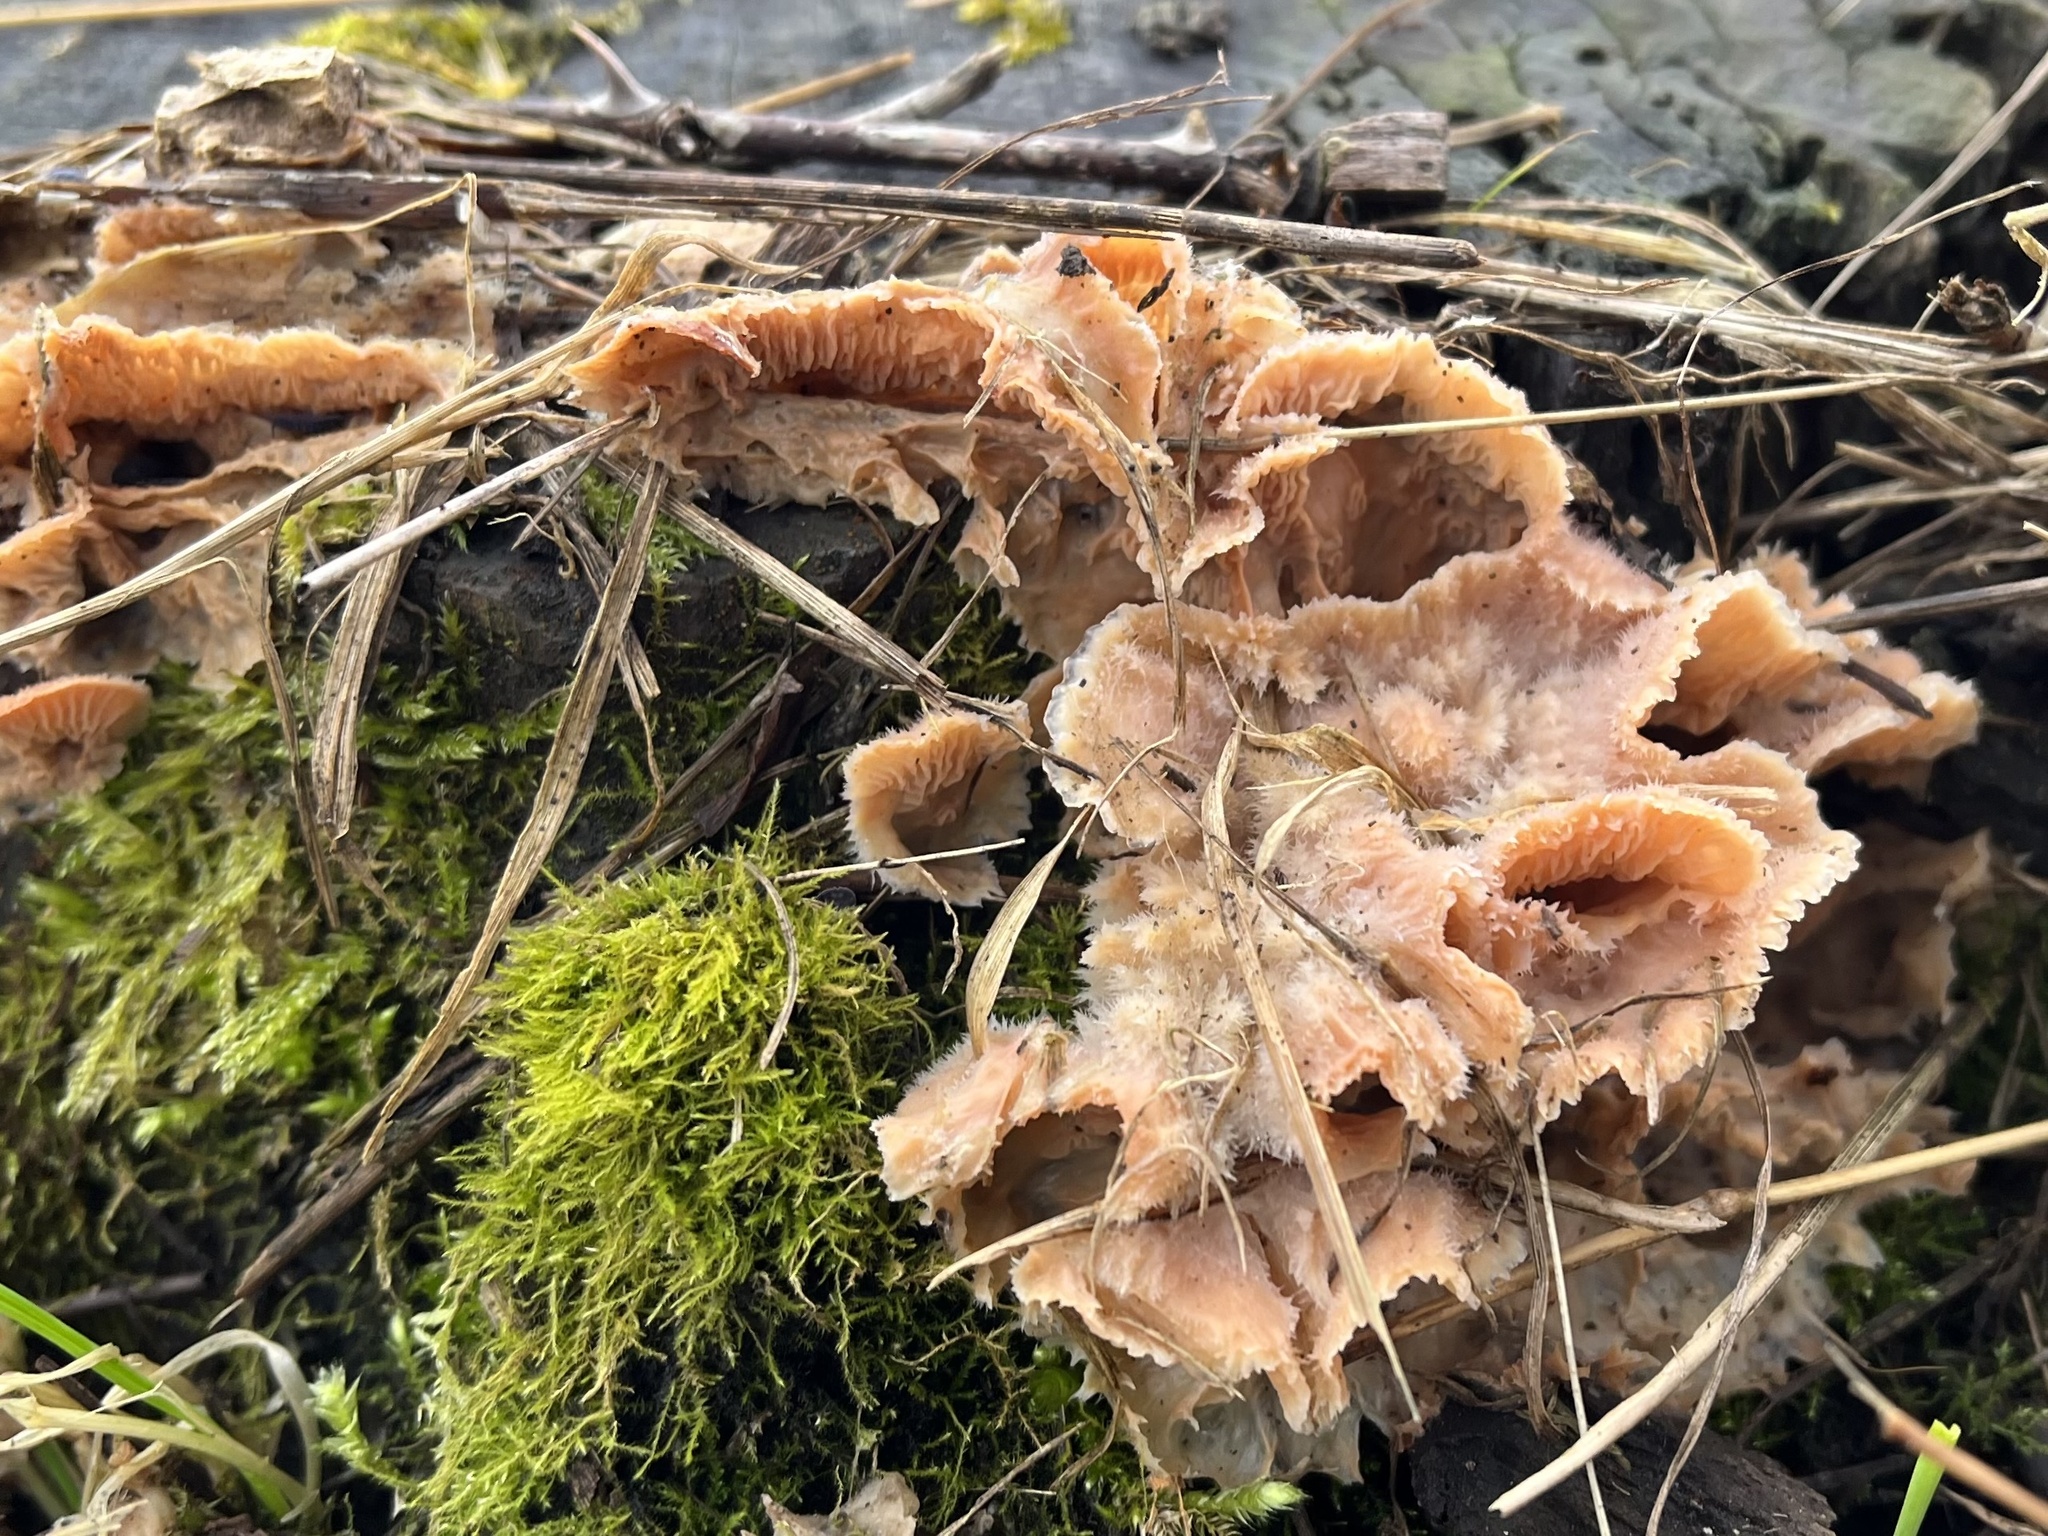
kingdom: Fungi
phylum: Basidiomycota
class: Agaricomycetes
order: Polyporales
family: Meruliaceae
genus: Phlebia
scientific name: Phlebia tremellosa
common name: Jelly rot
